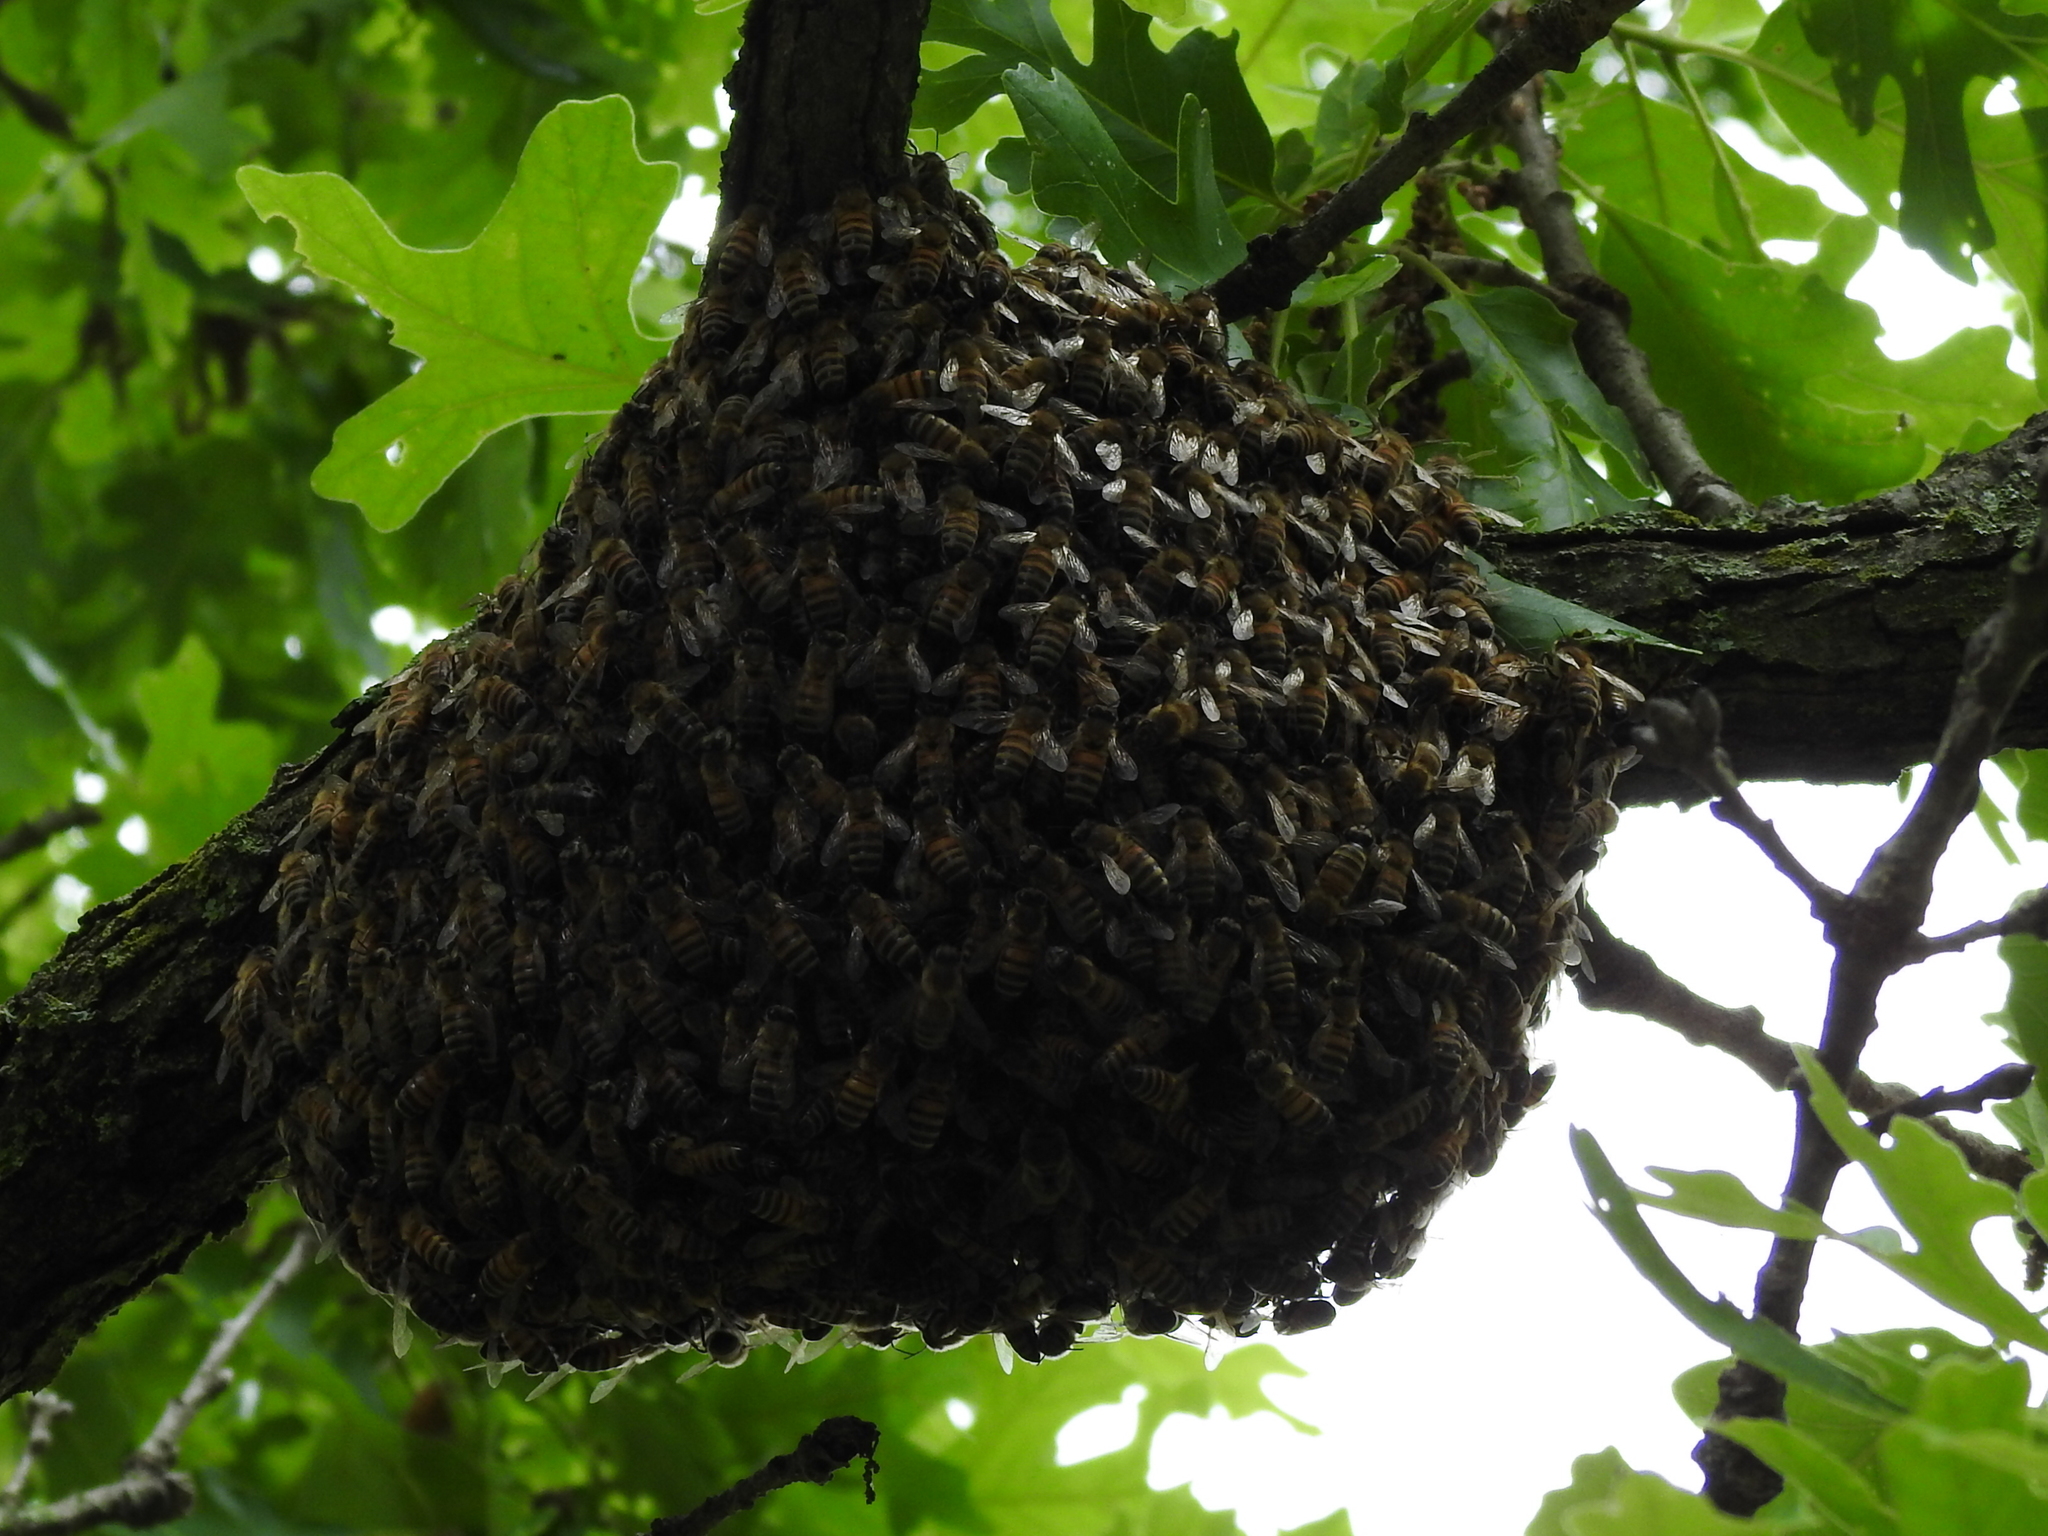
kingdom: Animalia
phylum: Arthropoda
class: Insecta
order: Hymenoptera
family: Apidae
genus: Apis
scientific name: Apis mellifera
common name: Honey bee
